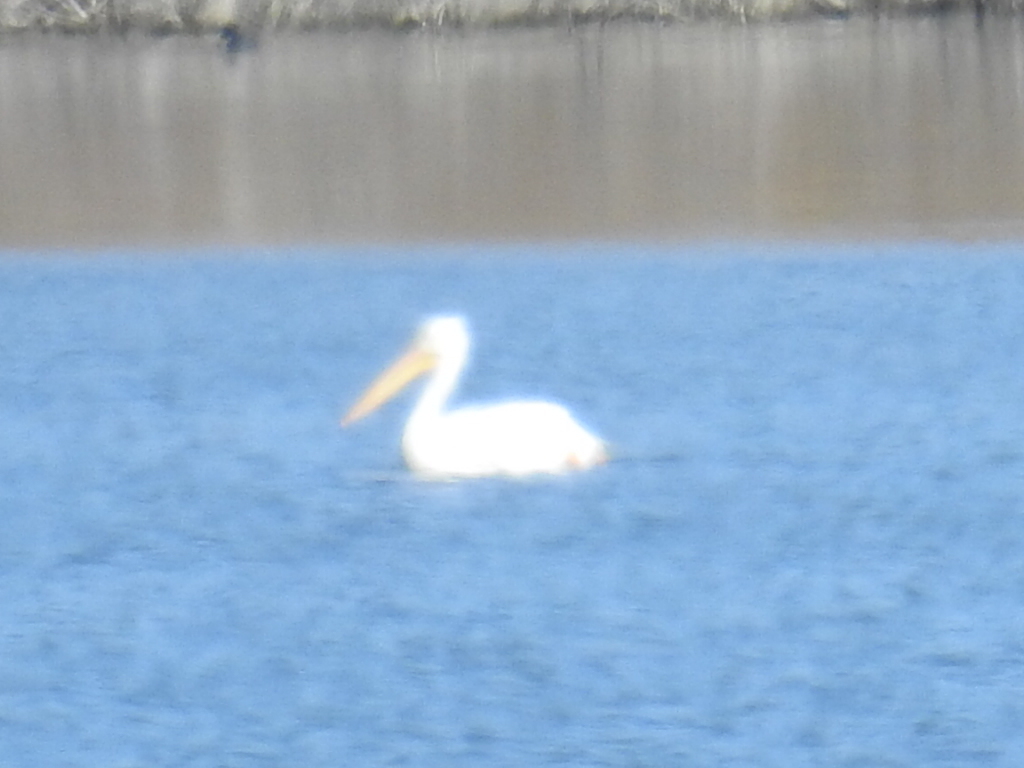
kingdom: Animalia
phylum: Chordata
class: Aves
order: Pelecaniformes
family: Pelecanidae
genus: Pelecanus
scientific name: Pelecanus erythrorhynchos
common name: American white pelican
